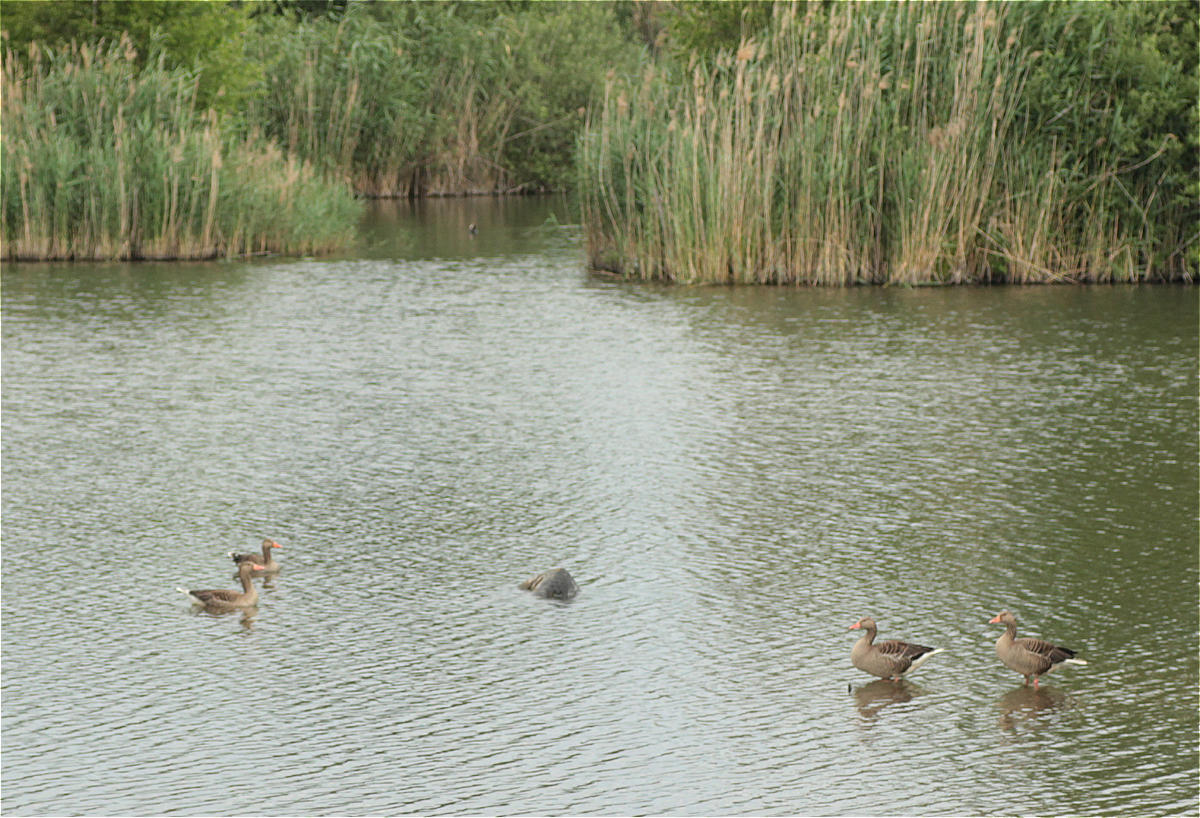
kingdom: Animalia
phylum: Chordata
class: Aves
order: Anseriformes
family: Anatidae
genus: Anser
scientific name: Anser anser
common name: Greylag goose
